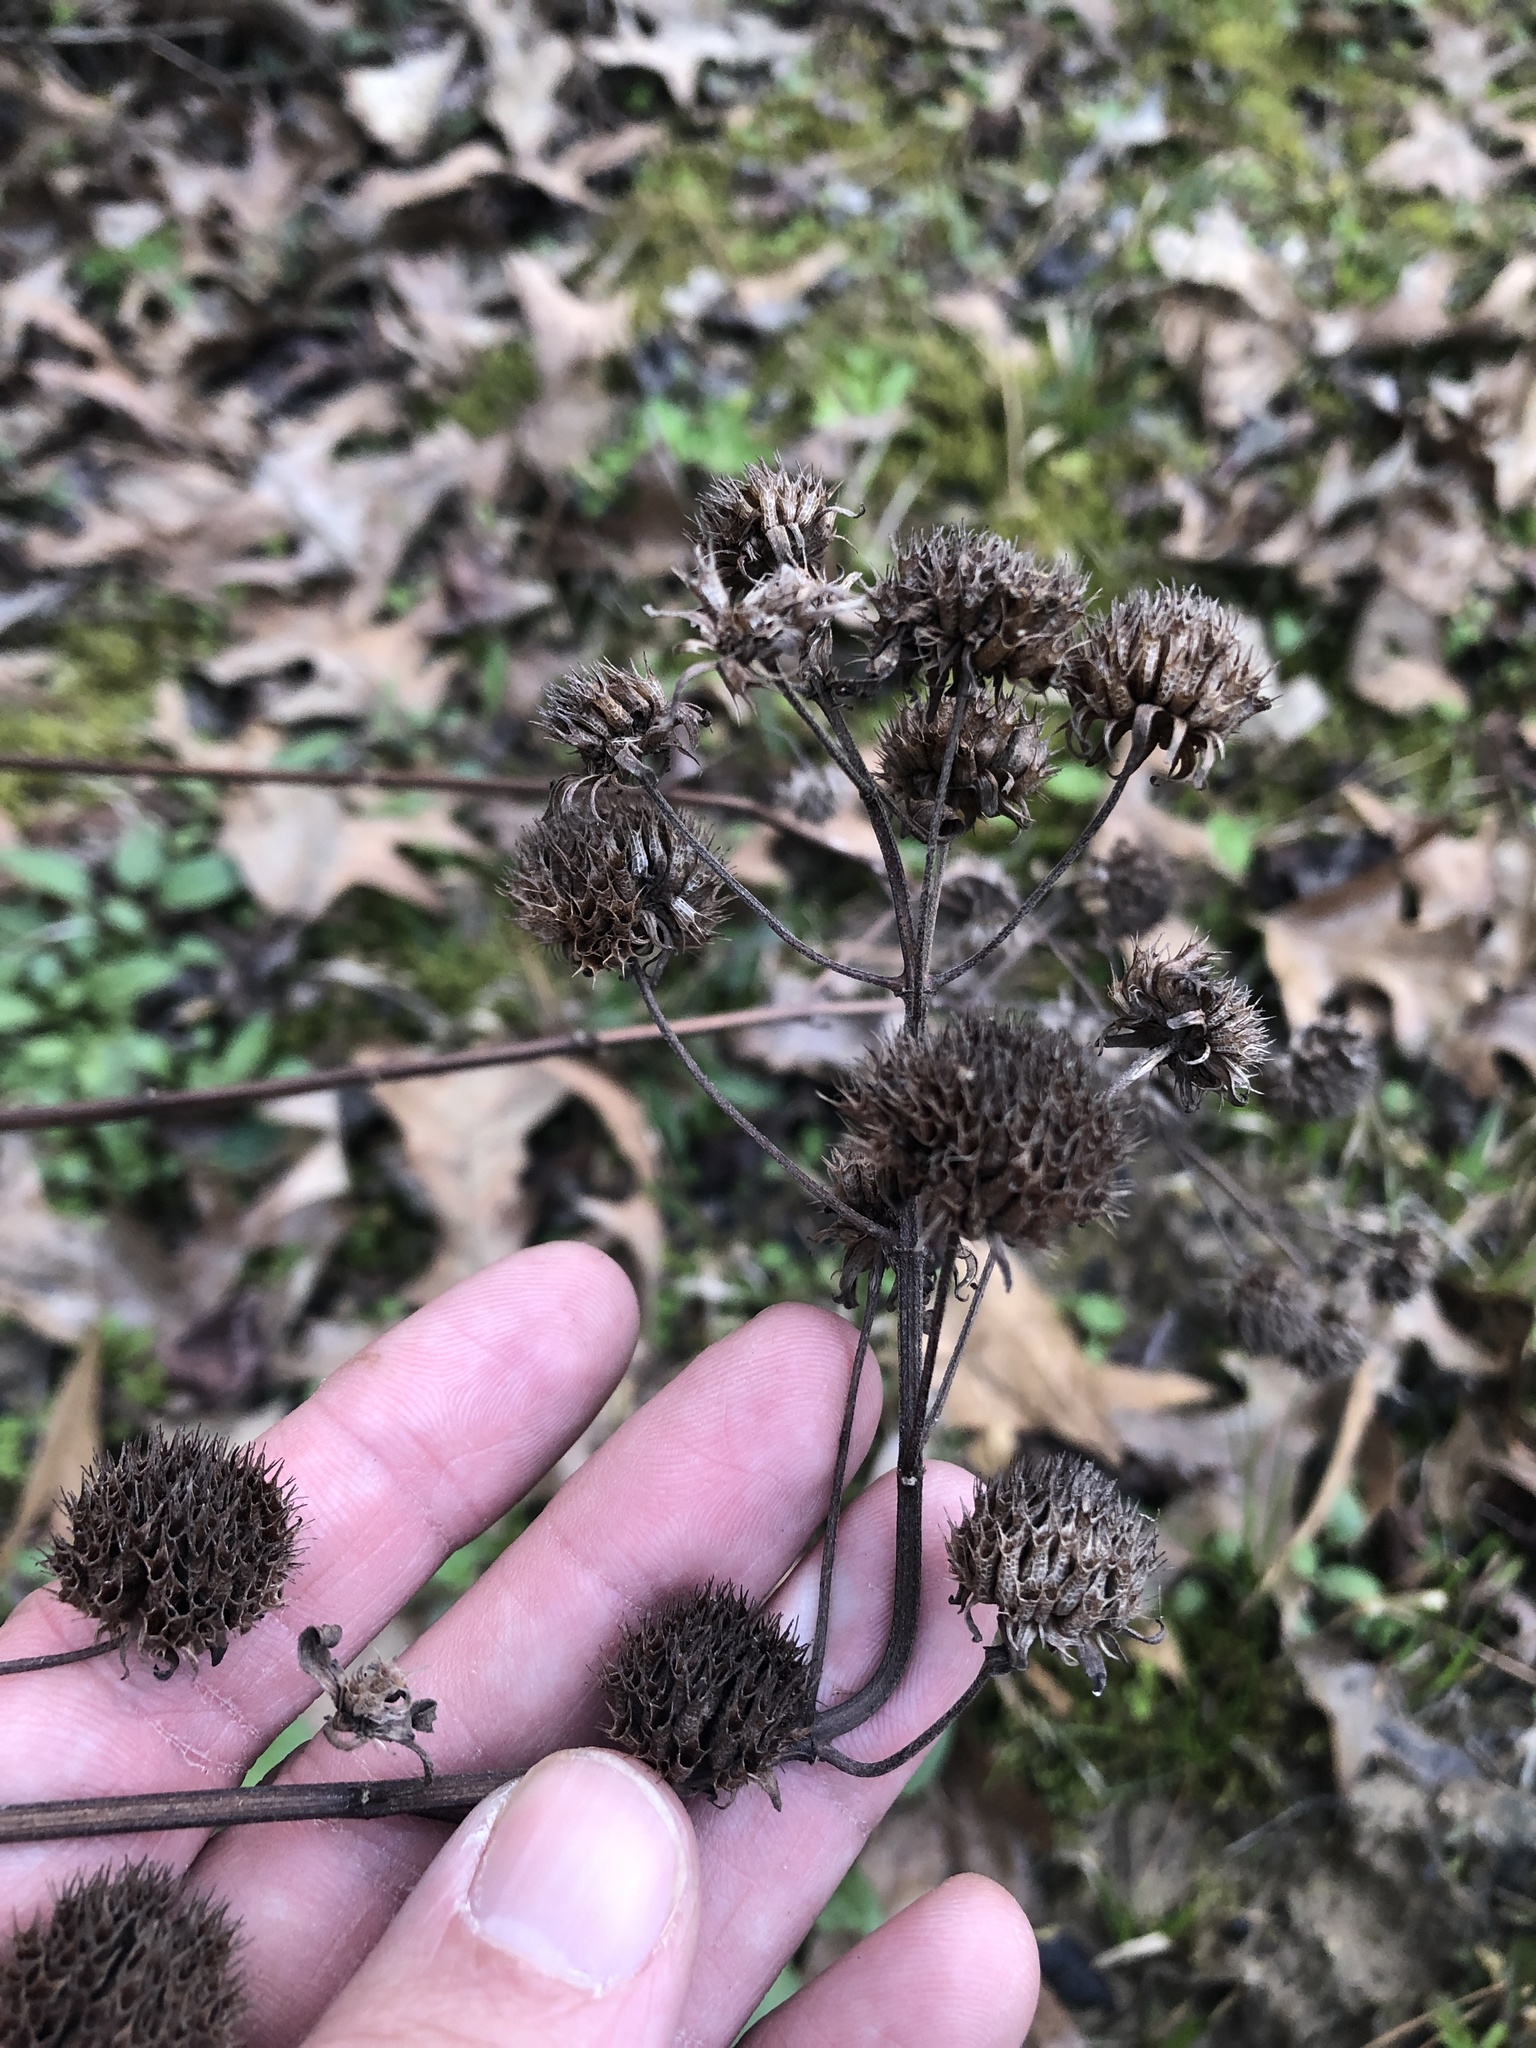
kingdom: Plantae
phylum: Tracheophyta
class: Magnoliopsida
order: Lamiales
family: Lamiaceae
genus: Hyptis
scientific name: Hyptis alata
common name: Cluster bush-mint
